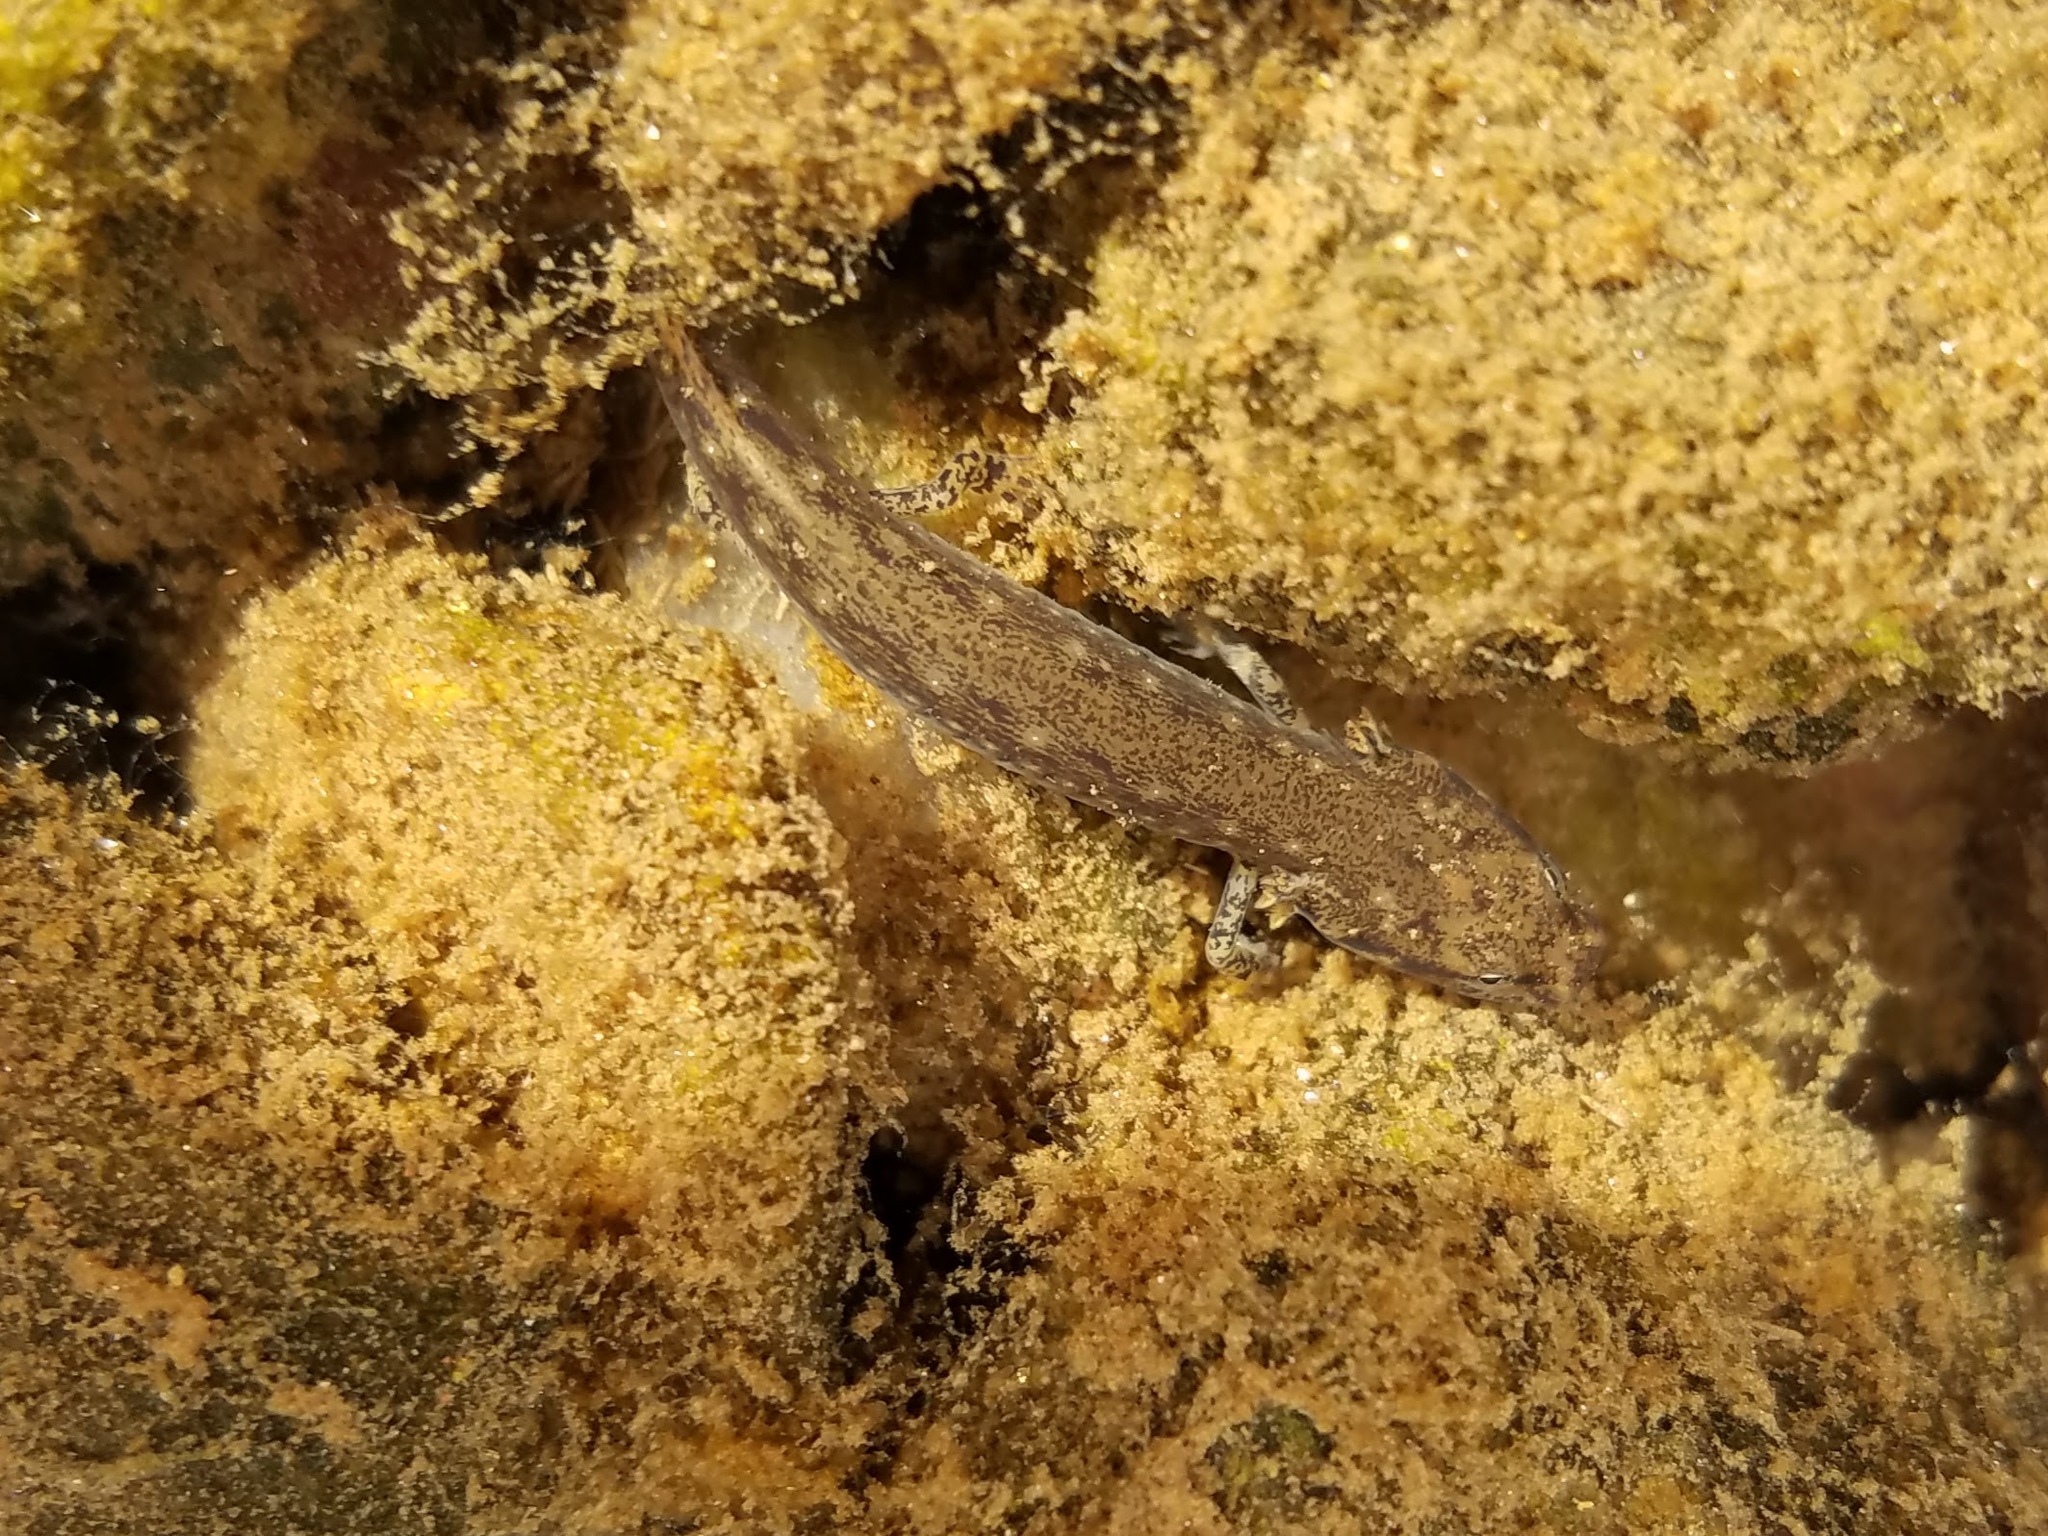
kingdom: Animalia
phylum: Chordata
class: Amphibia
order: Caudata
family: Plethodontidae
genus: Eurycea
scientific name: Eurycea cirrigera
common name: Southern two-lined salamander
